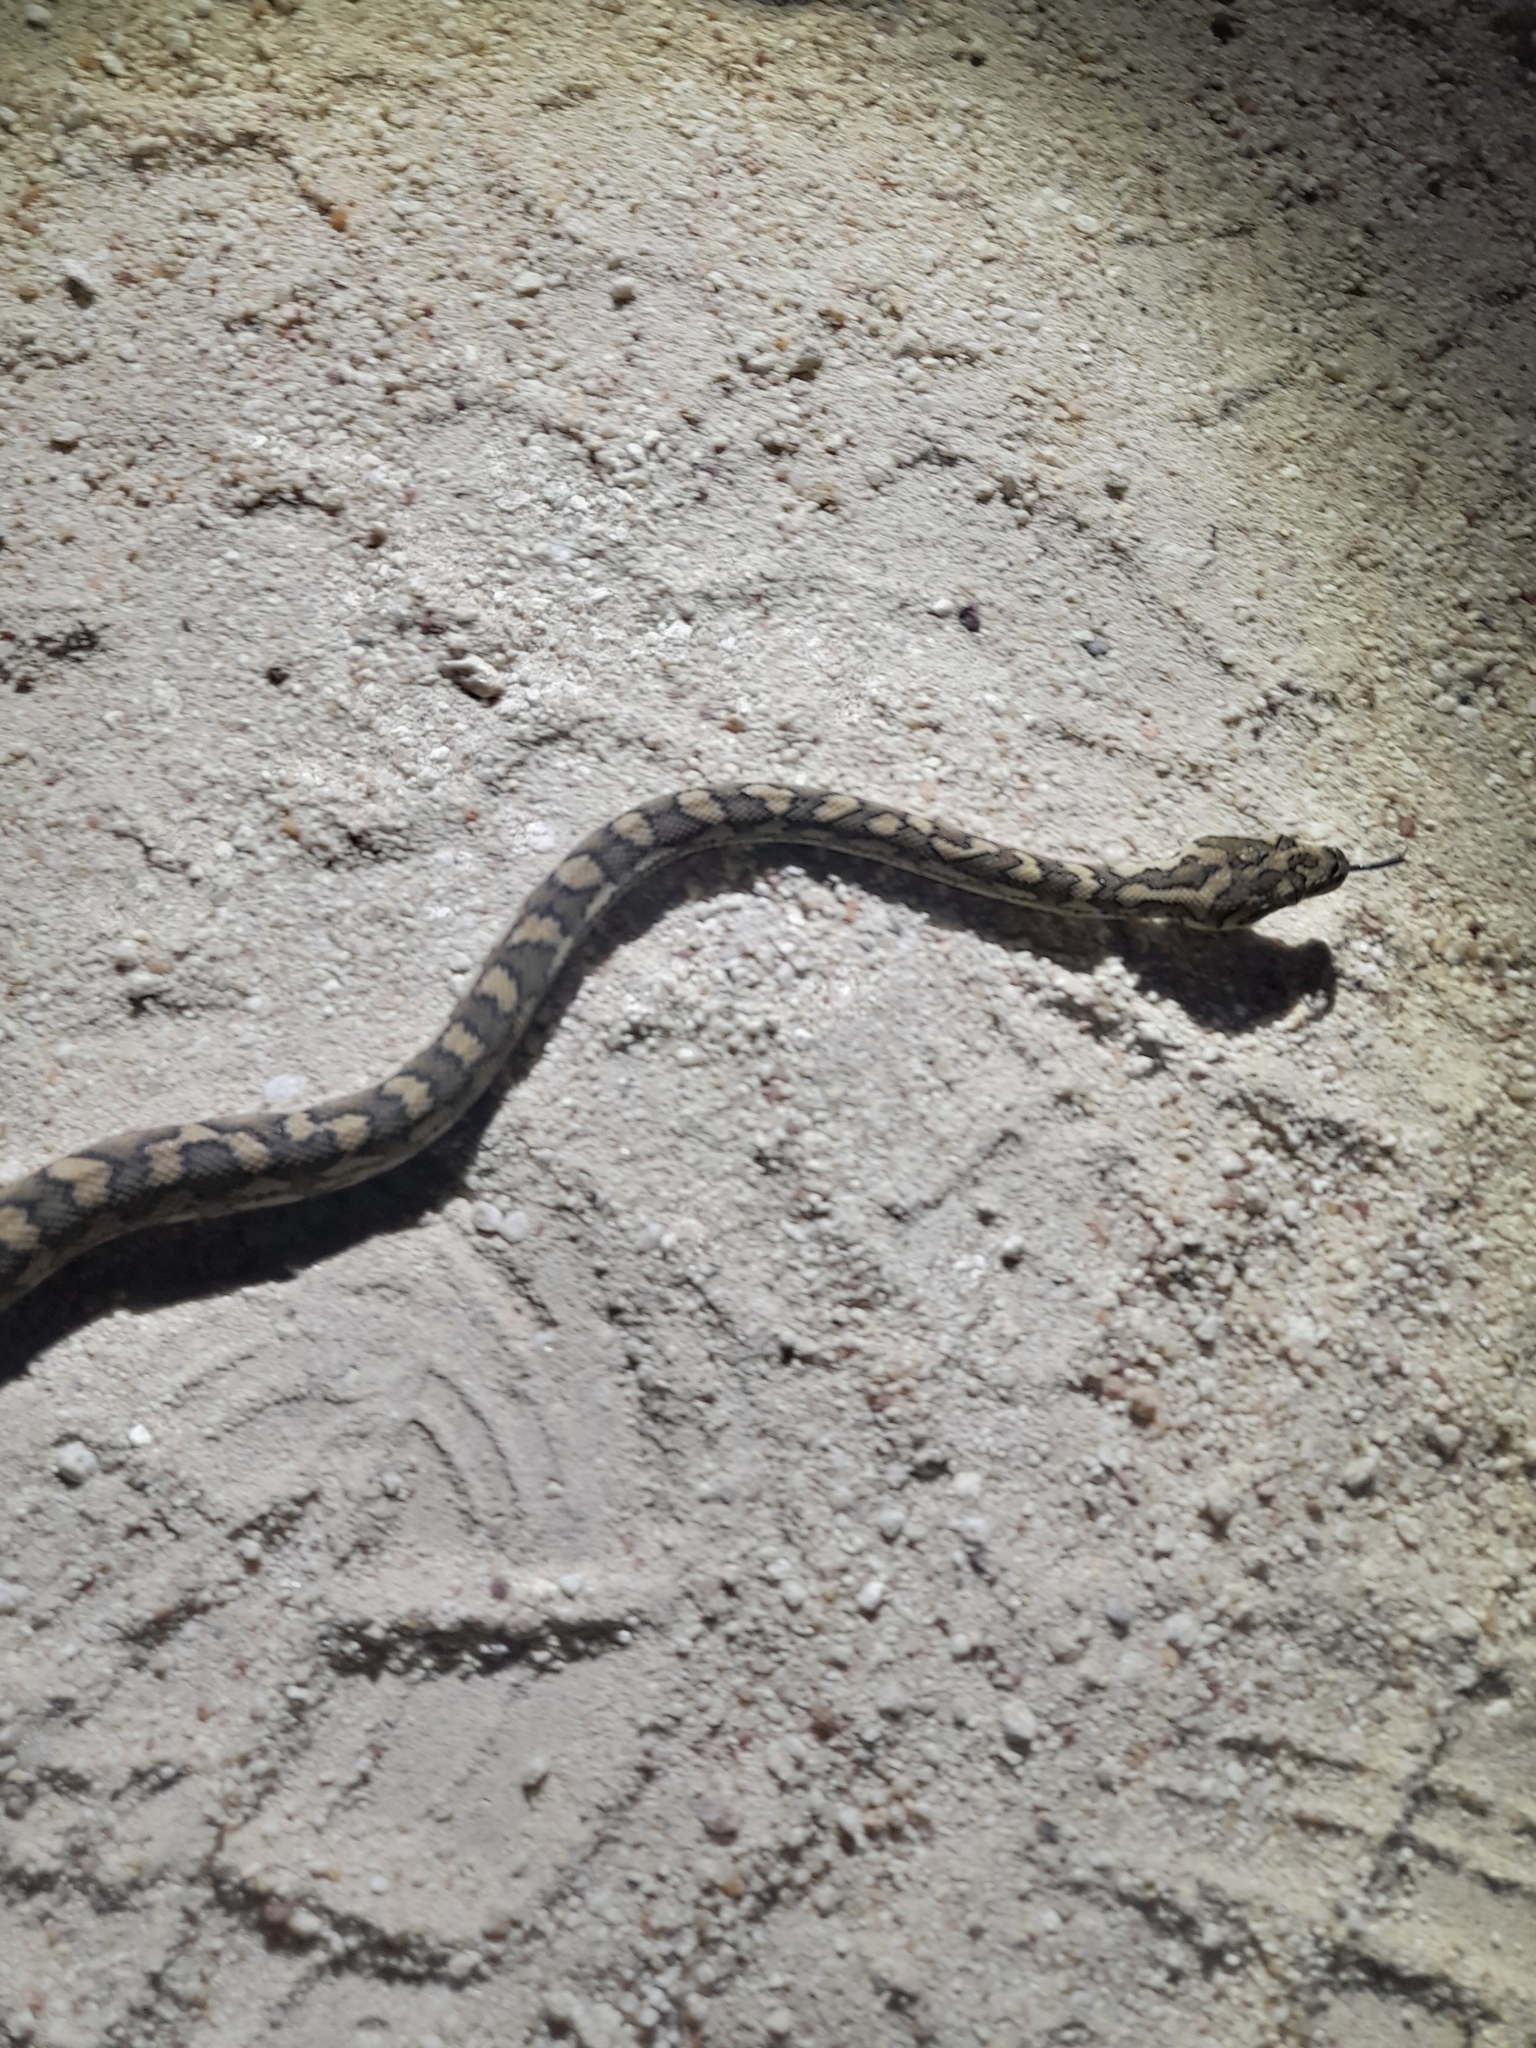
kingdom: Animalia
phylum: Chordata
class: Squamata
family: Pythonidae
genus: Morelia
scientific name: Morelia spilota
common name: Carpet python
